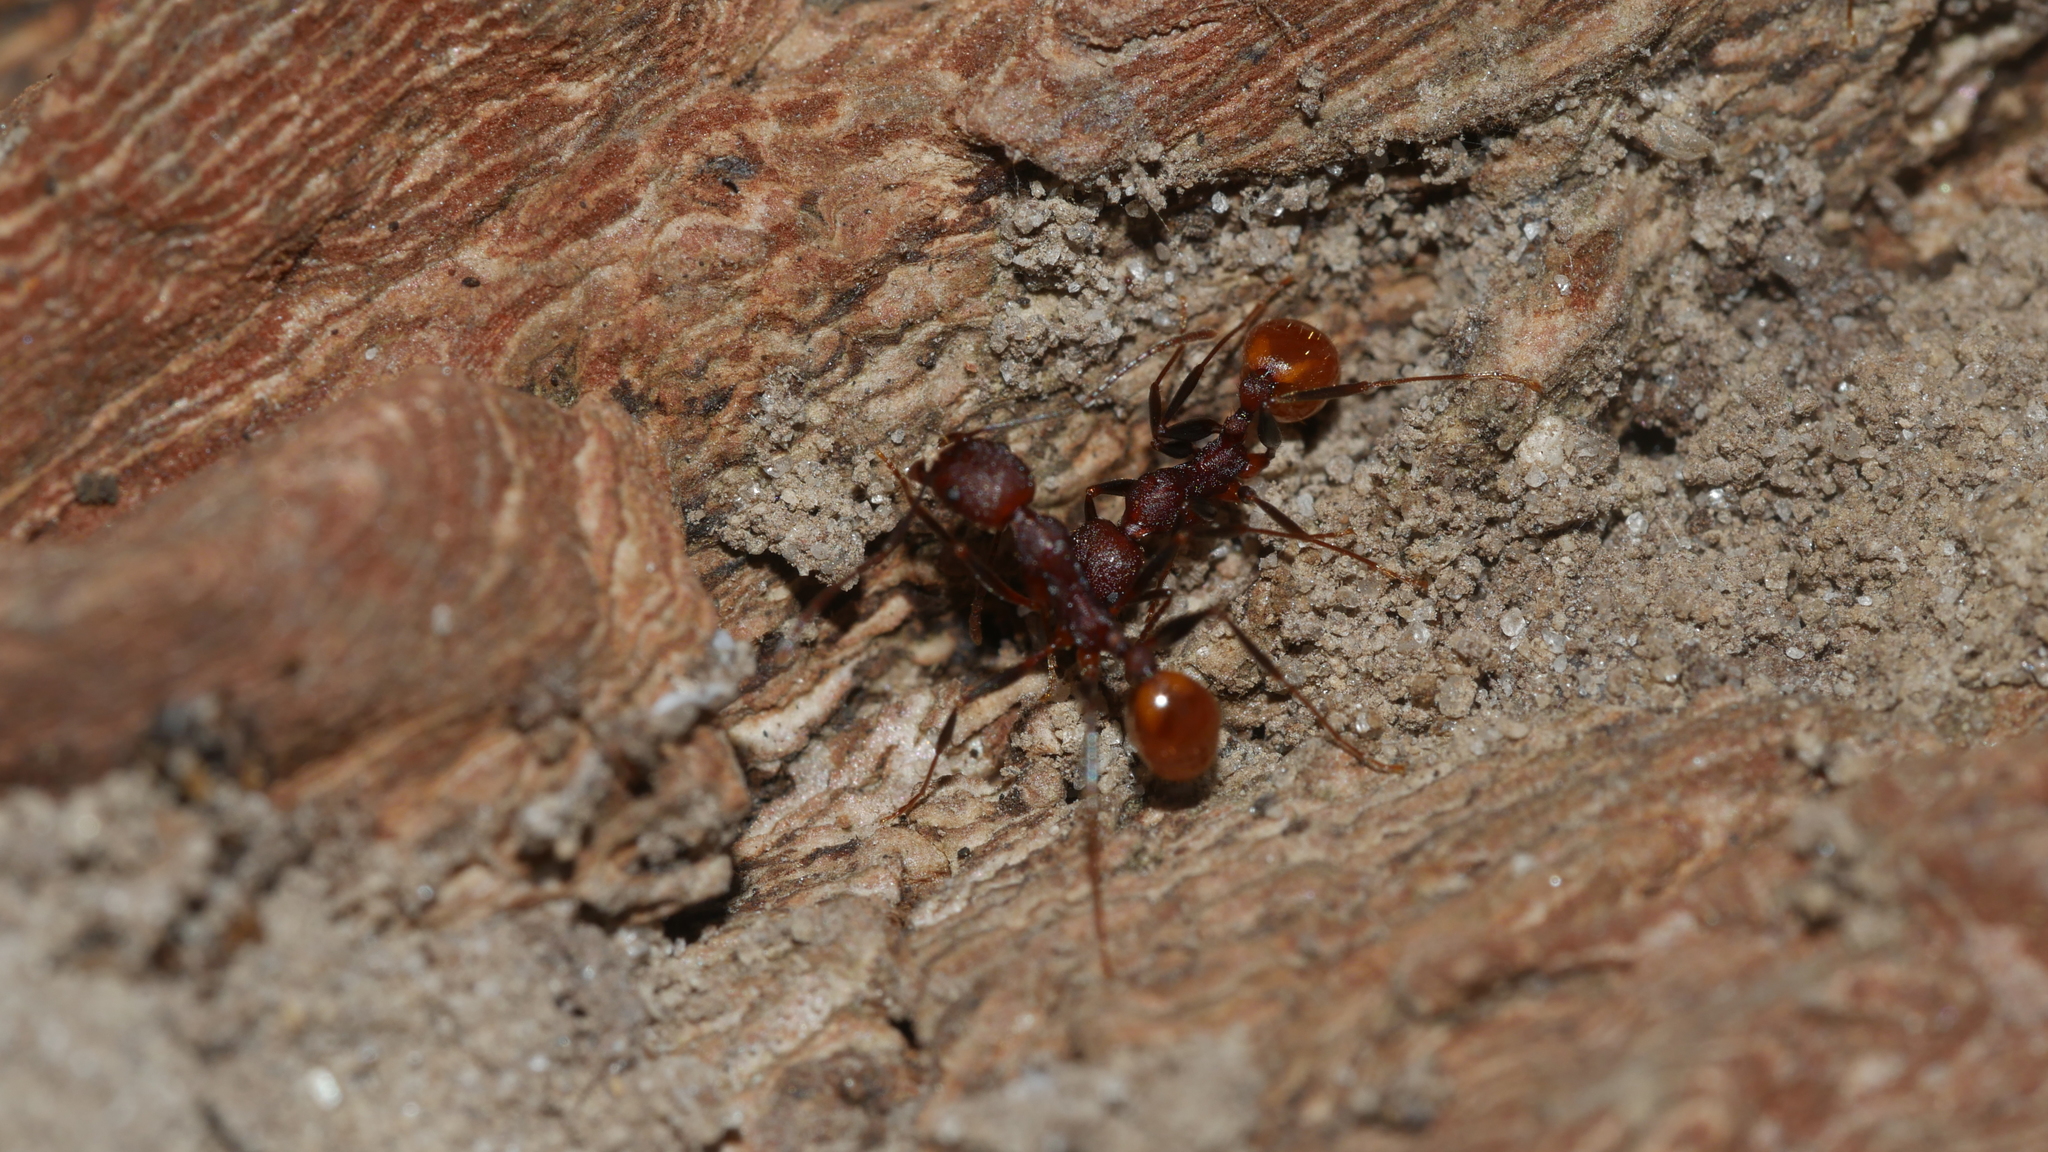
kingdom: Animalia
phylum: Arthropoda
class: Insecta
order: Hymenoptera
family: Formicidae
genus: Aphaenogaster
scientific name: Aphaenogaster lamellidens
